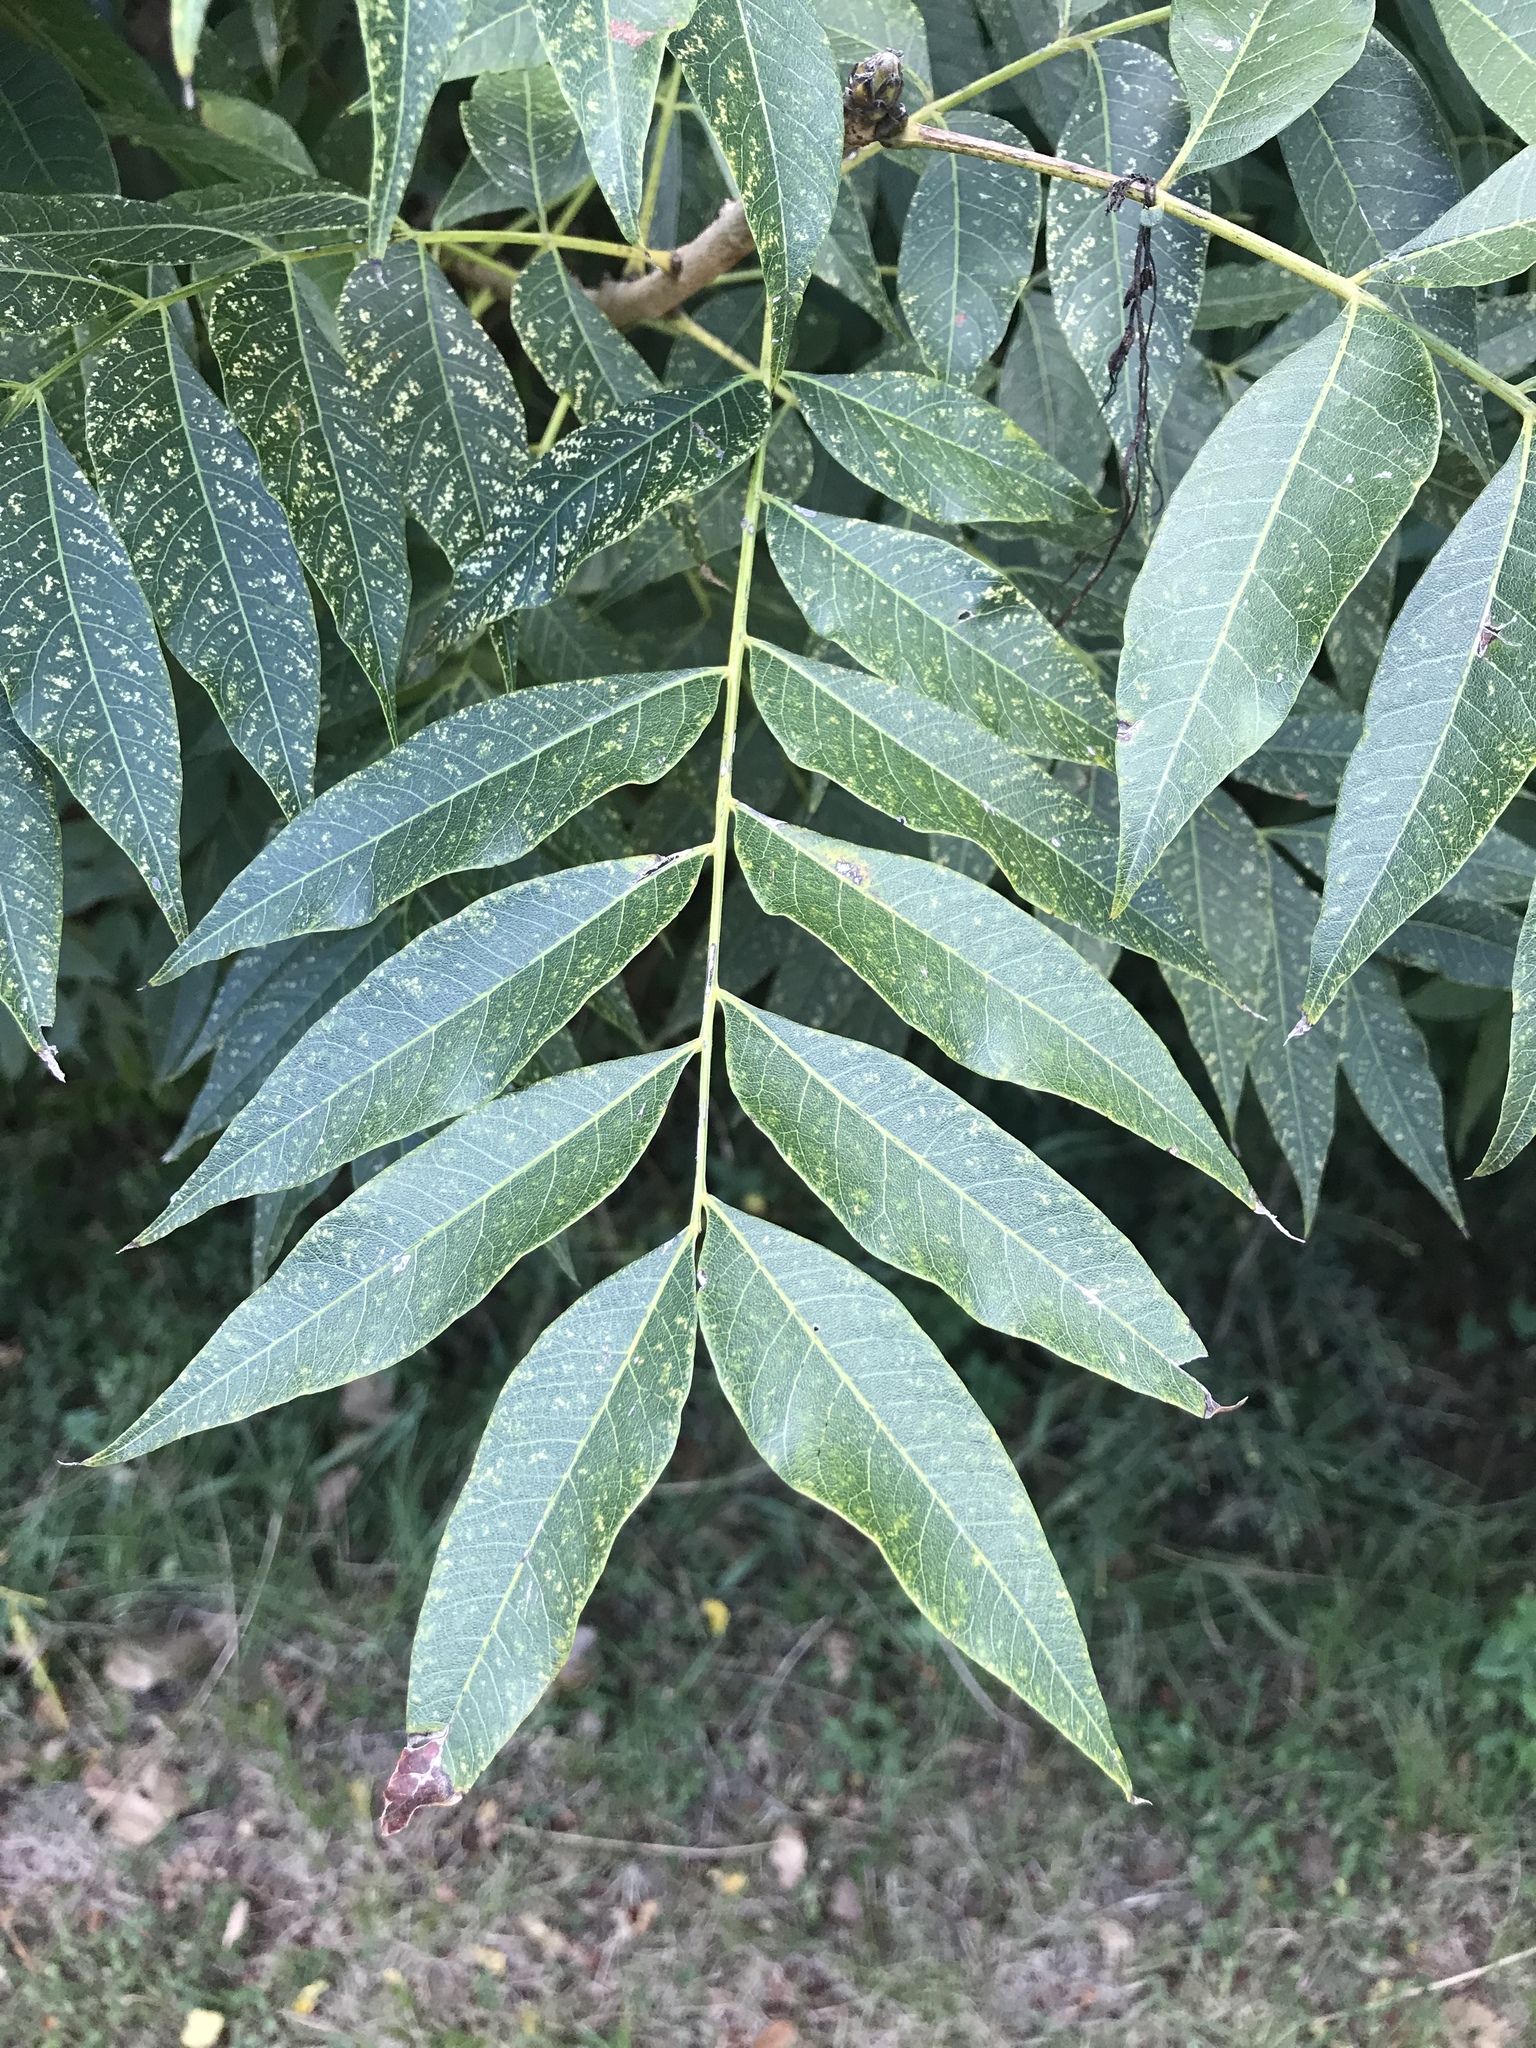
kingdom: Plantae
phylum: Tracheophyta
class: Magnoliopsida
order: Sapindales
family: Sapindaceae
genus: Sapindus
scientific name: Sapindus drummondii
